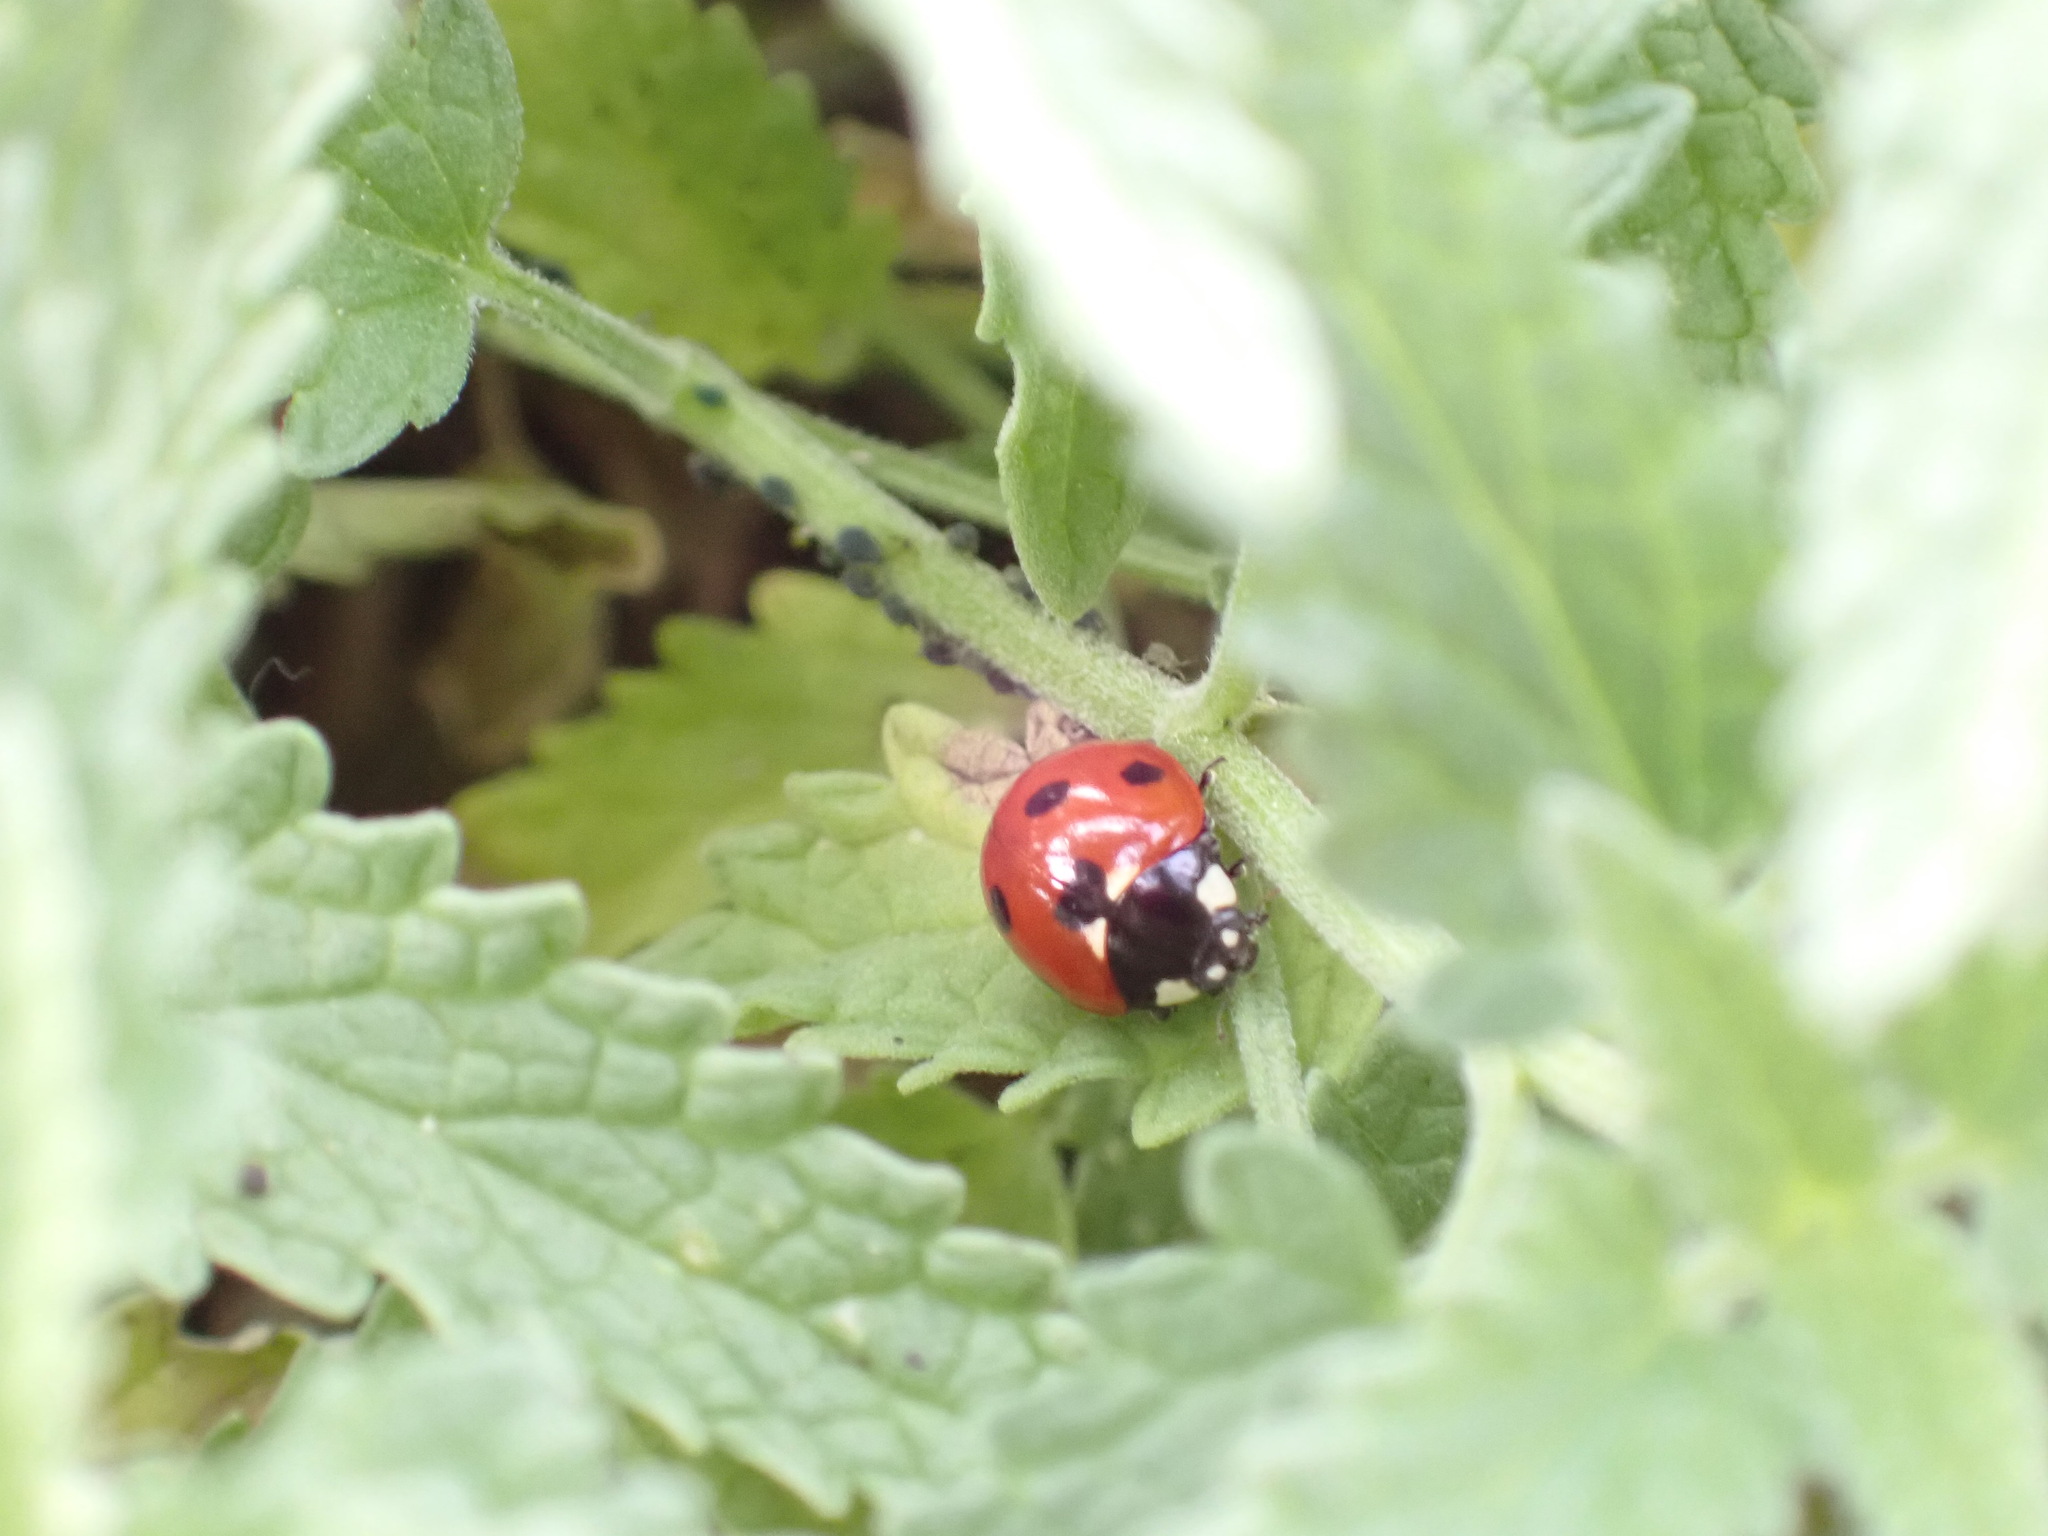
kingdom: Animalia
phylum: Arthropoda
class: Insecta
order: Coleoptera
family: Coccinellidae
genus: Coccinella
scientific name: Coccinella septempunctata
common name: Sevenspotted lady beetle
